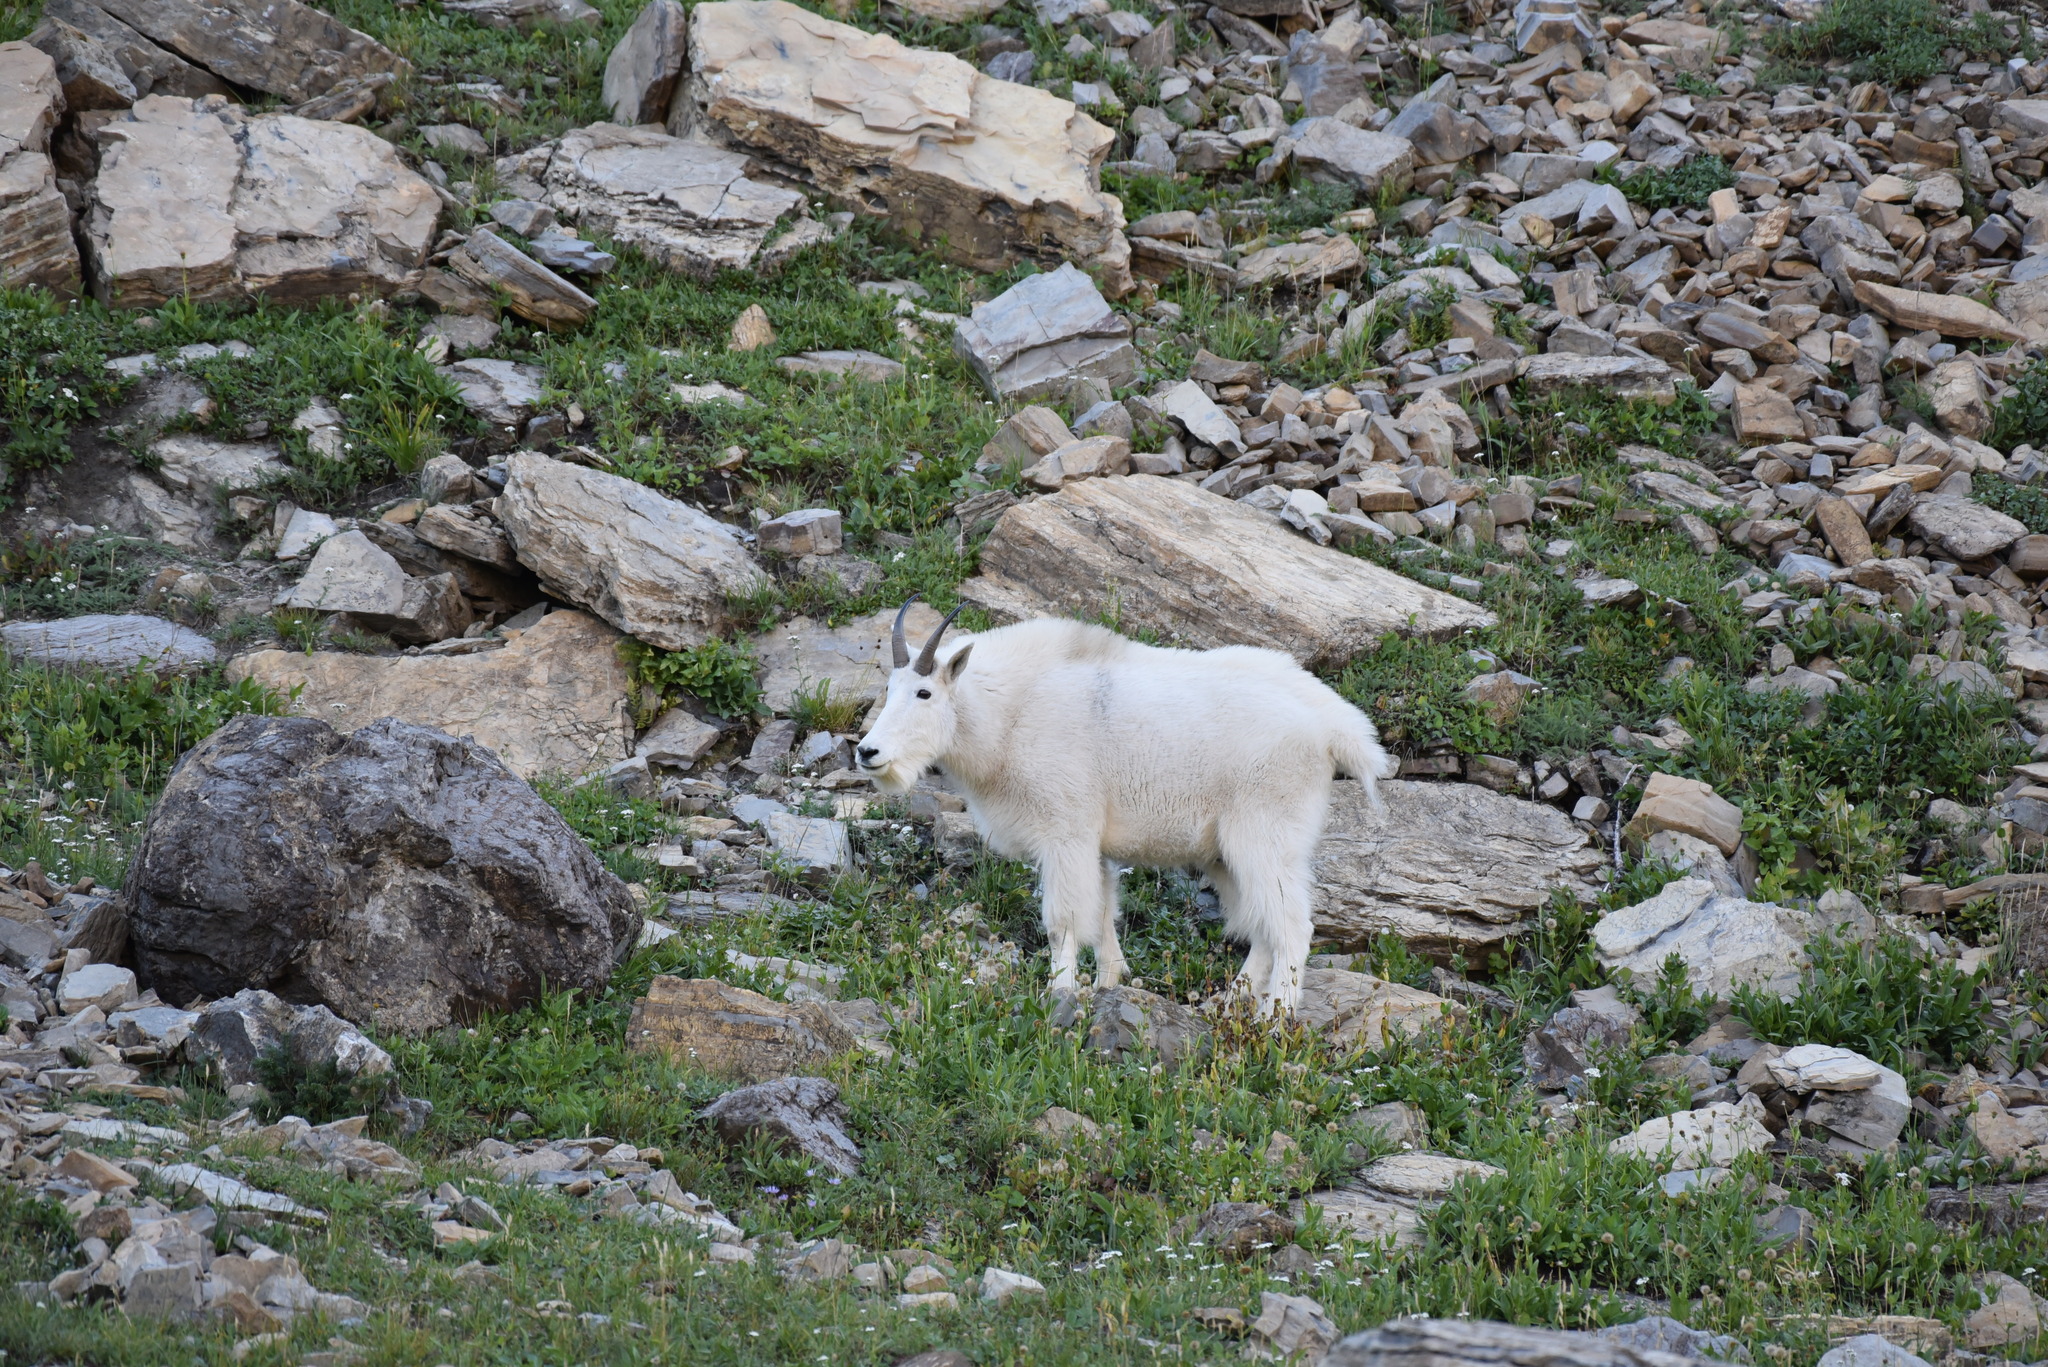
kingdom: Animalia
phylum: Chordata
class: Mammalia
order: Artiodactyla
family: Bovidae
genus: Oreamnos
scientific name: Oreamnos americanus
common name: Mountain goat
